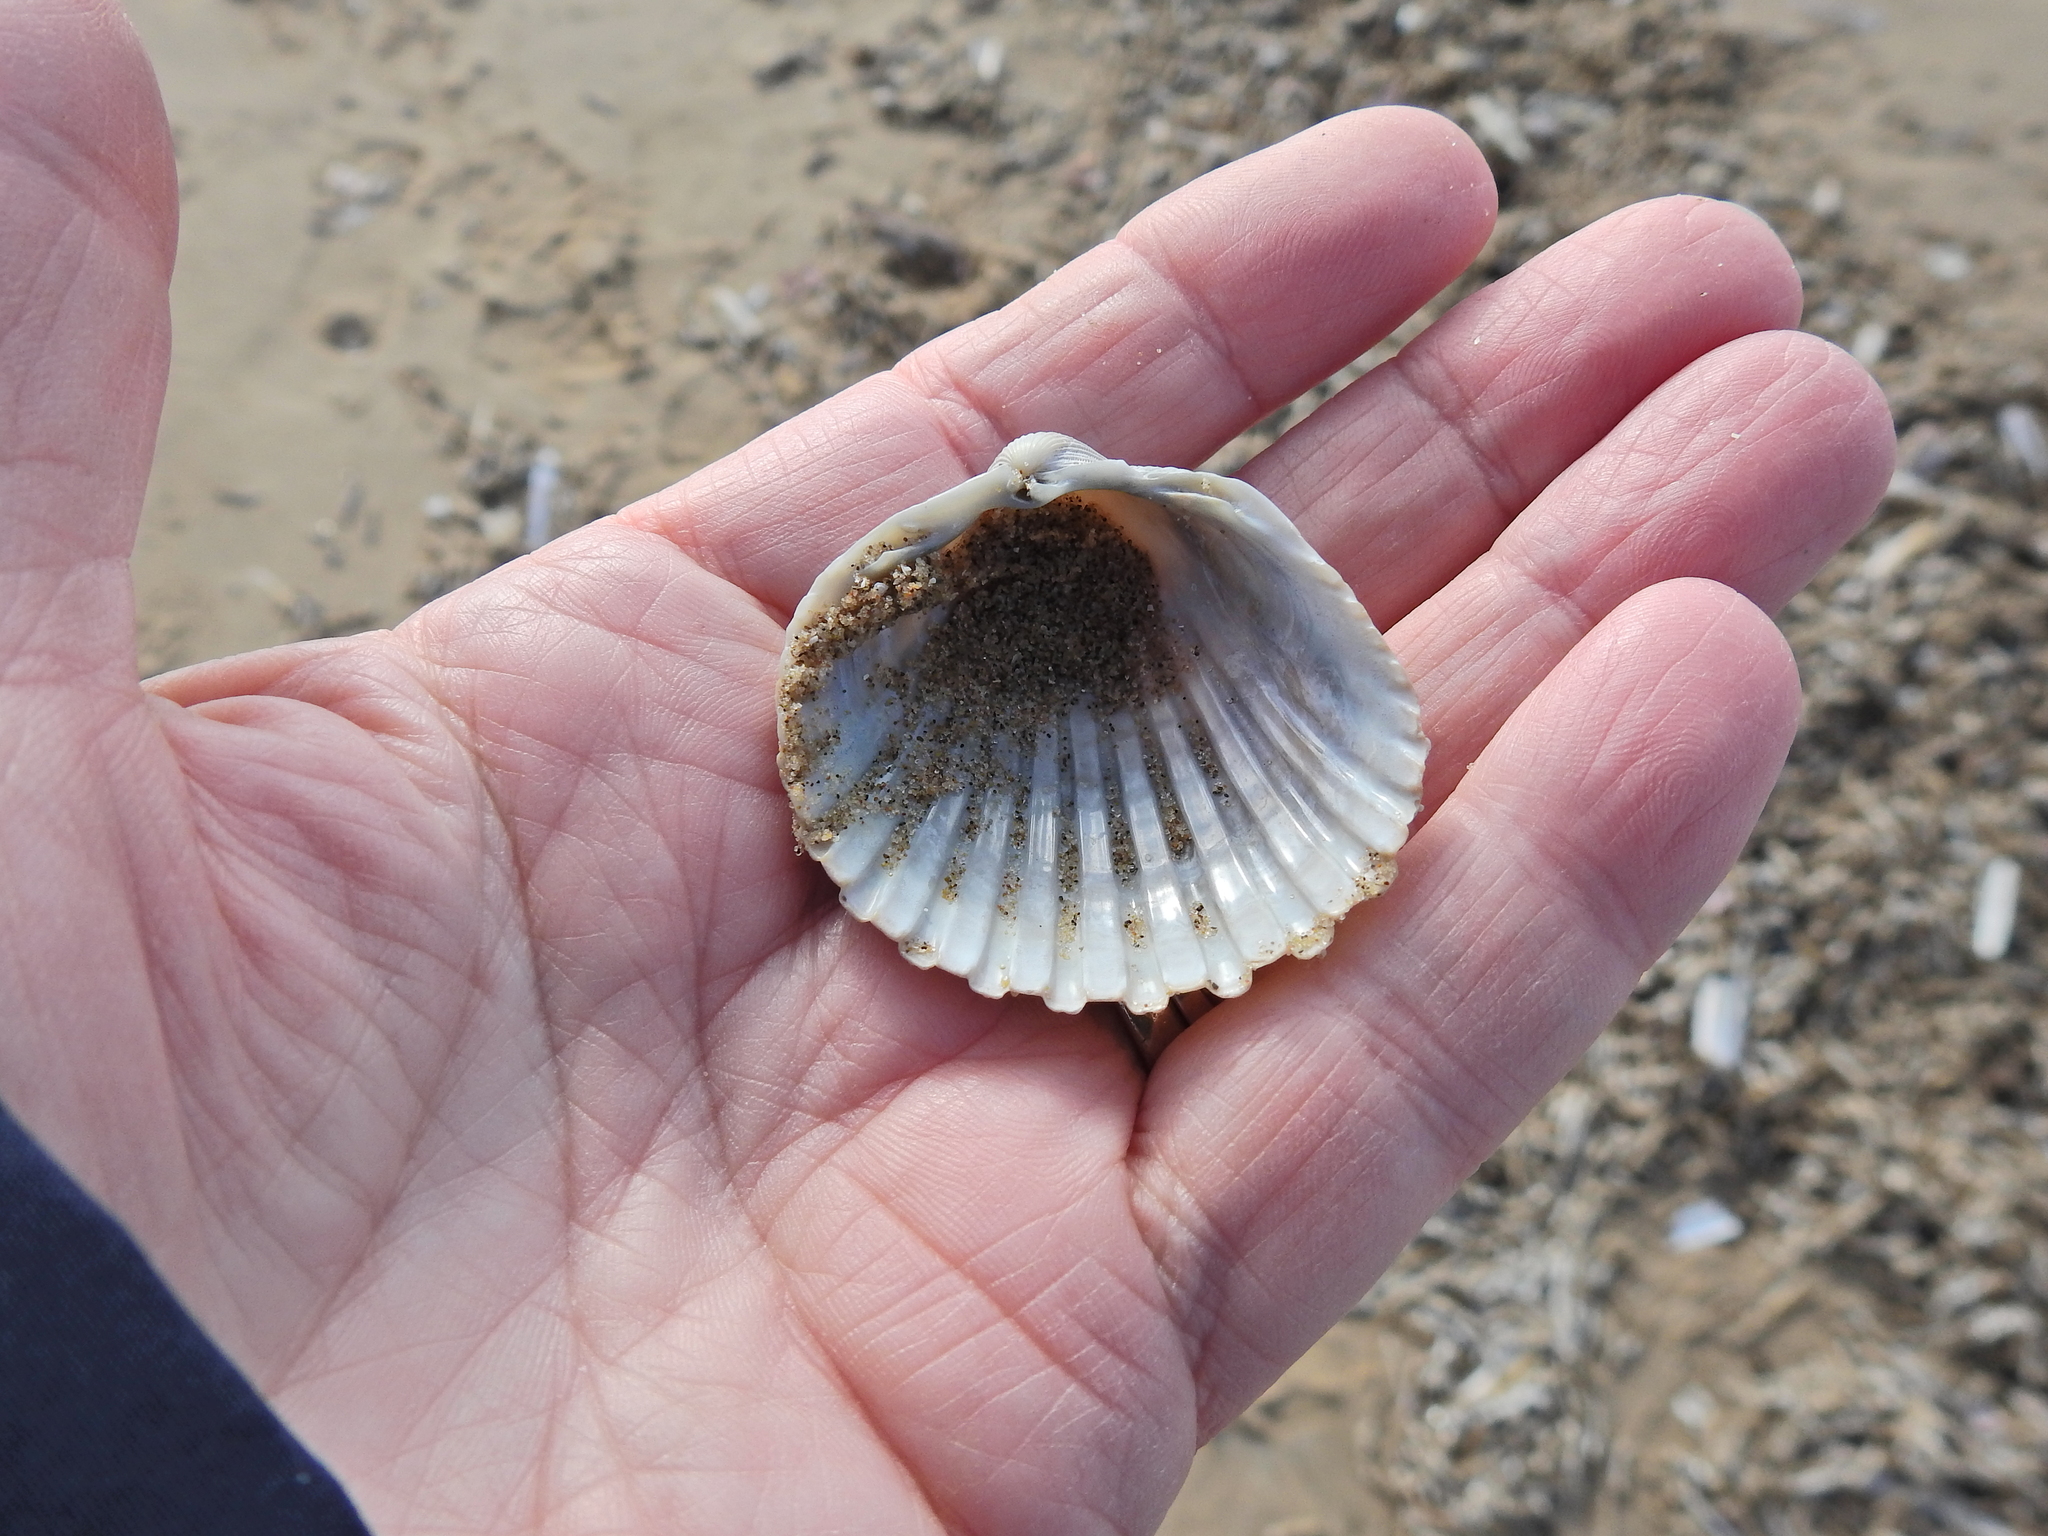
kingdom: Animalia
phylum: Mollusca
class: Bivalvia
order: Cardiida
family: Cardiidae
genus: Acanthocardia
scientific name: Acanthocardia echinata
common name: Prickly cockle
